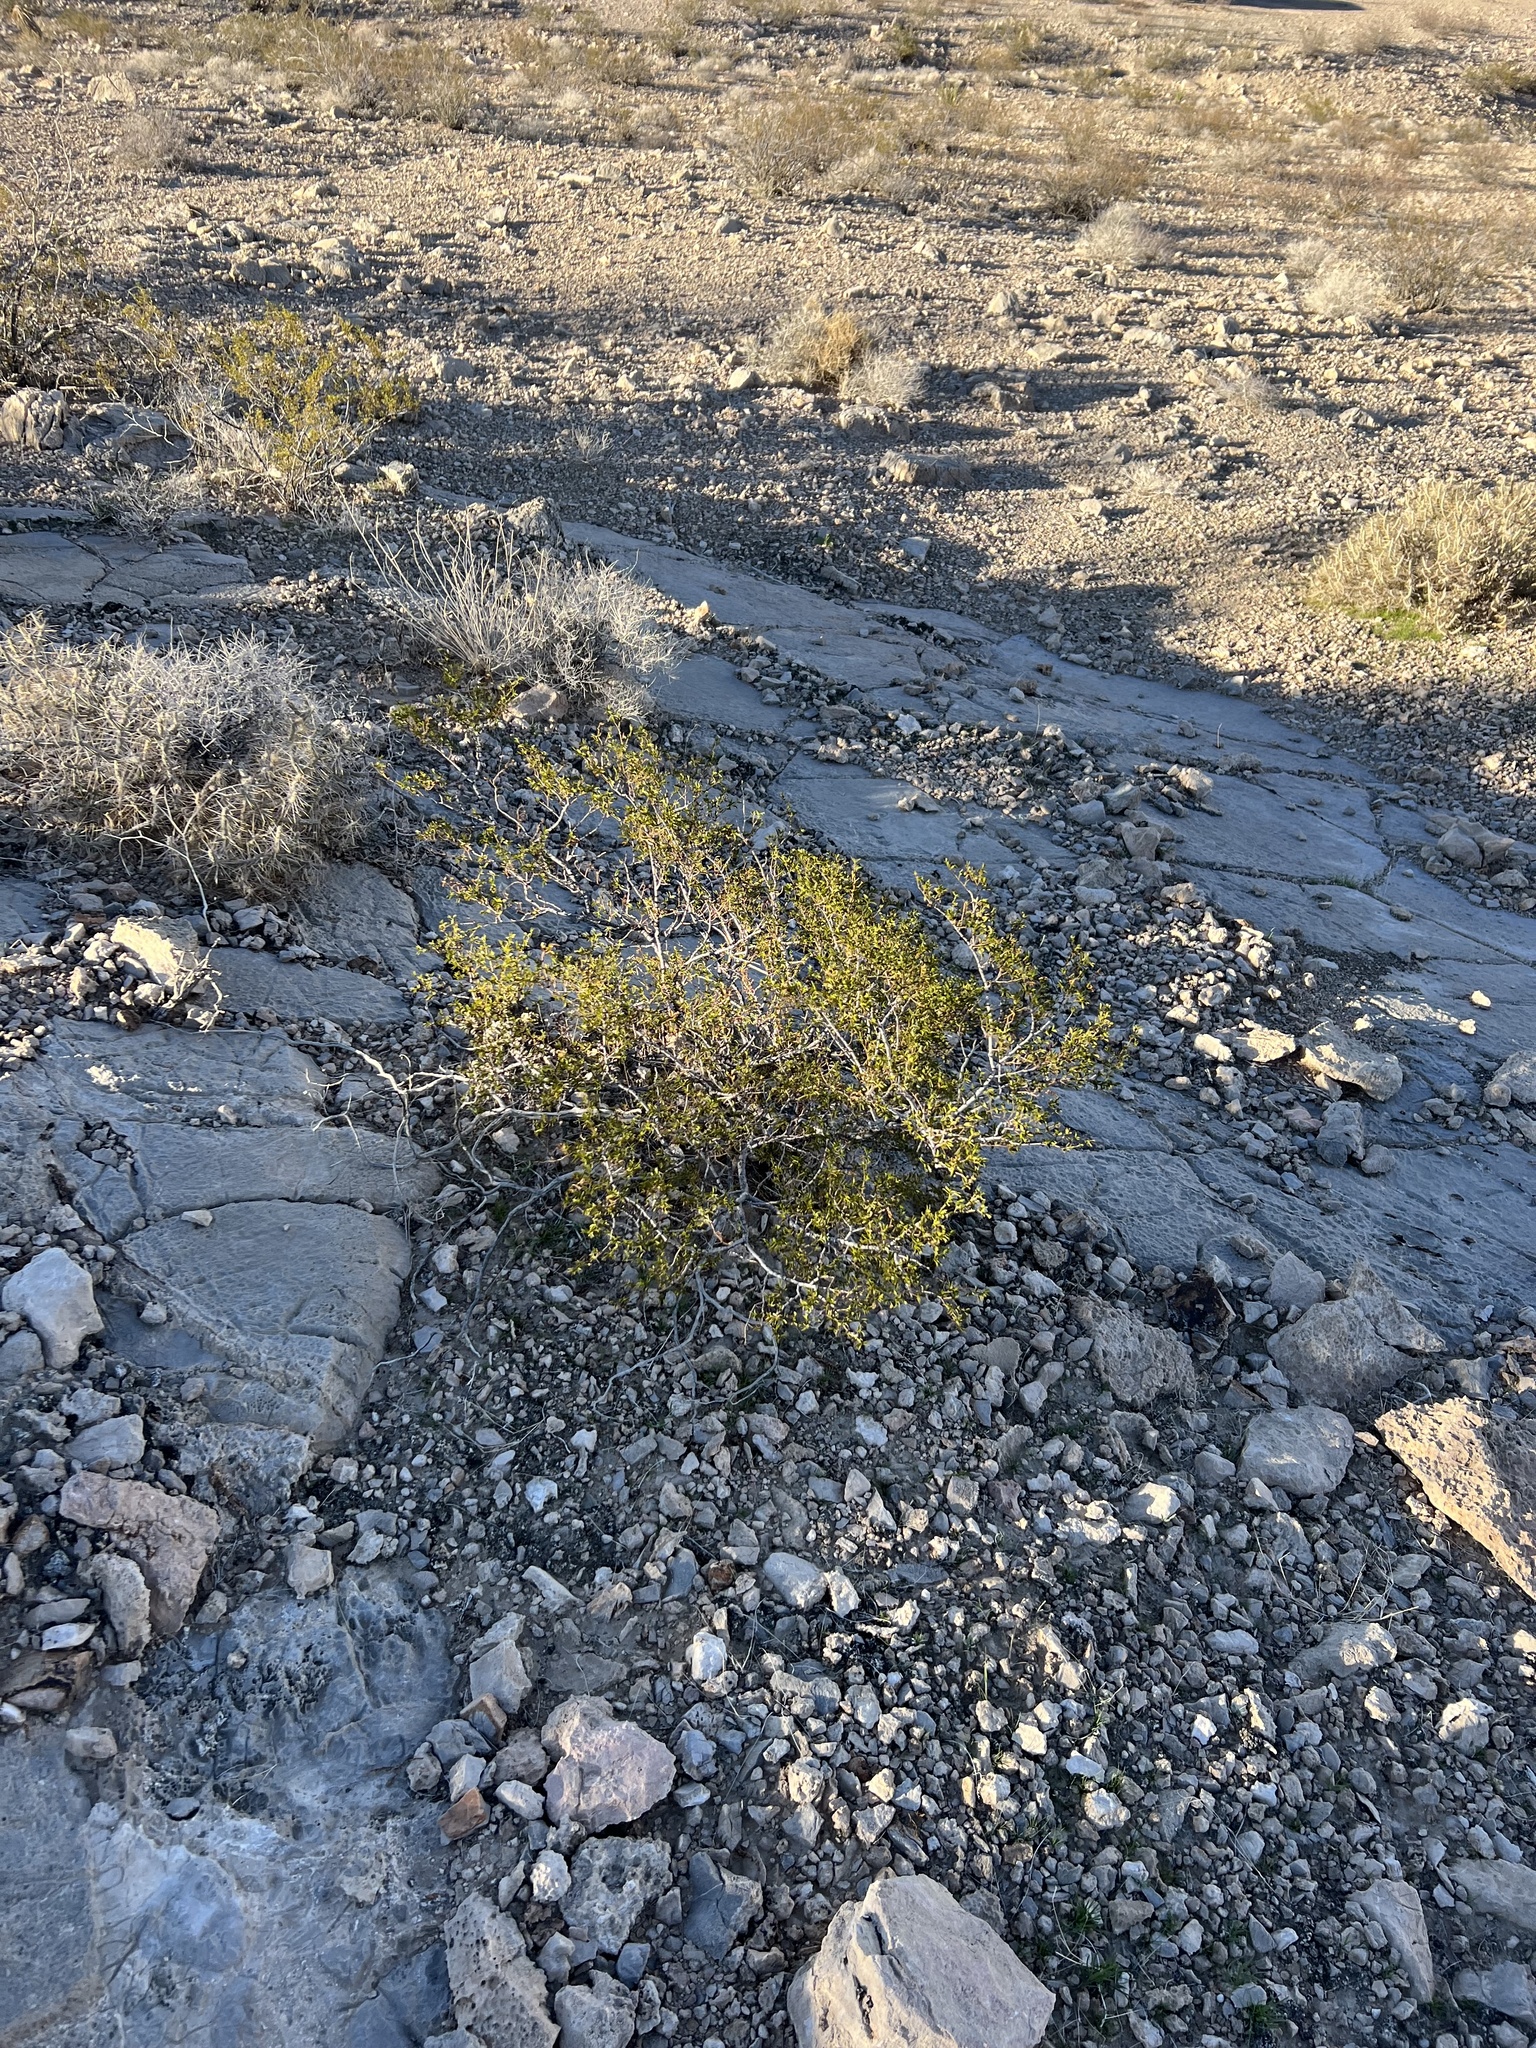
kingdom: Plantae
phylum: Tracheophyta
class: Magnoliopsida
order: Zygophyllales
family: Zygophyllaceae
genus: Larrea
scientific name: Larrea tridentata
